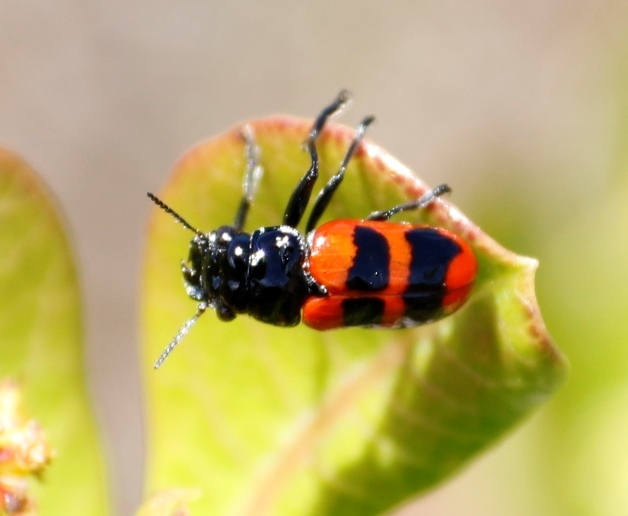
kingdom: Animalia
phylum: Arthropoda
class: Insecta
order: Coleoptera
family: Chrysomelidae
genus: Merilia
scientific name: Merilia
